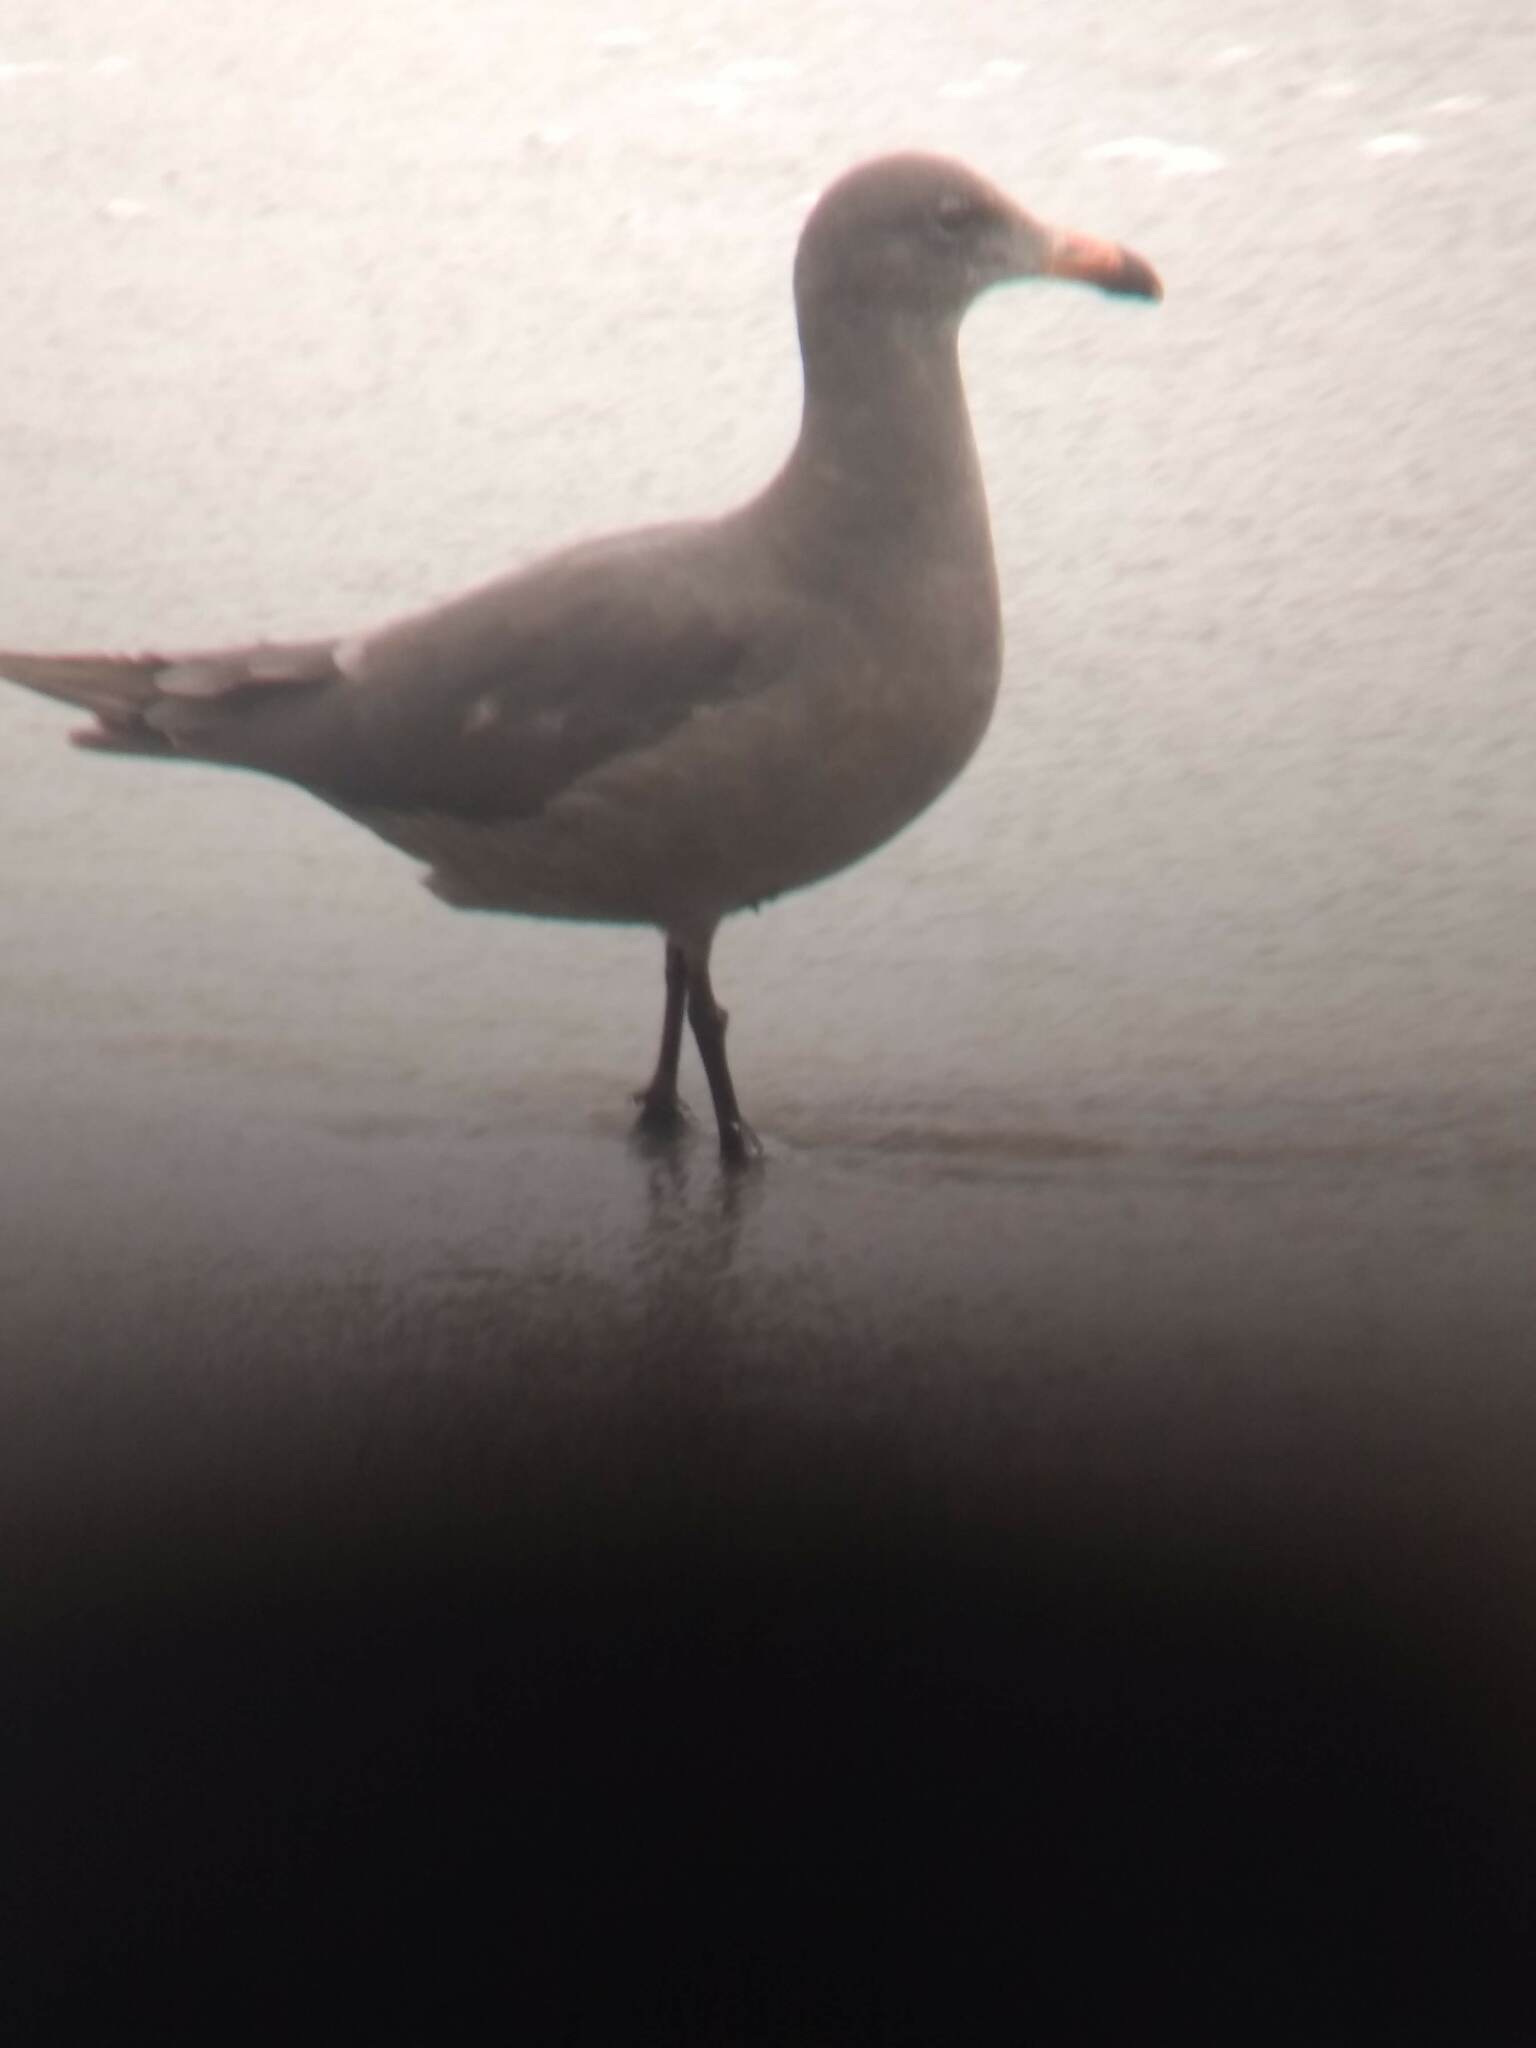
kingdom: Animalia
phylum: Chordata
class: Aves
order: Charadriiformes
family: Laridae
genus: Larus
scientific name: Larus heermanni
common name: Heermann's gull
